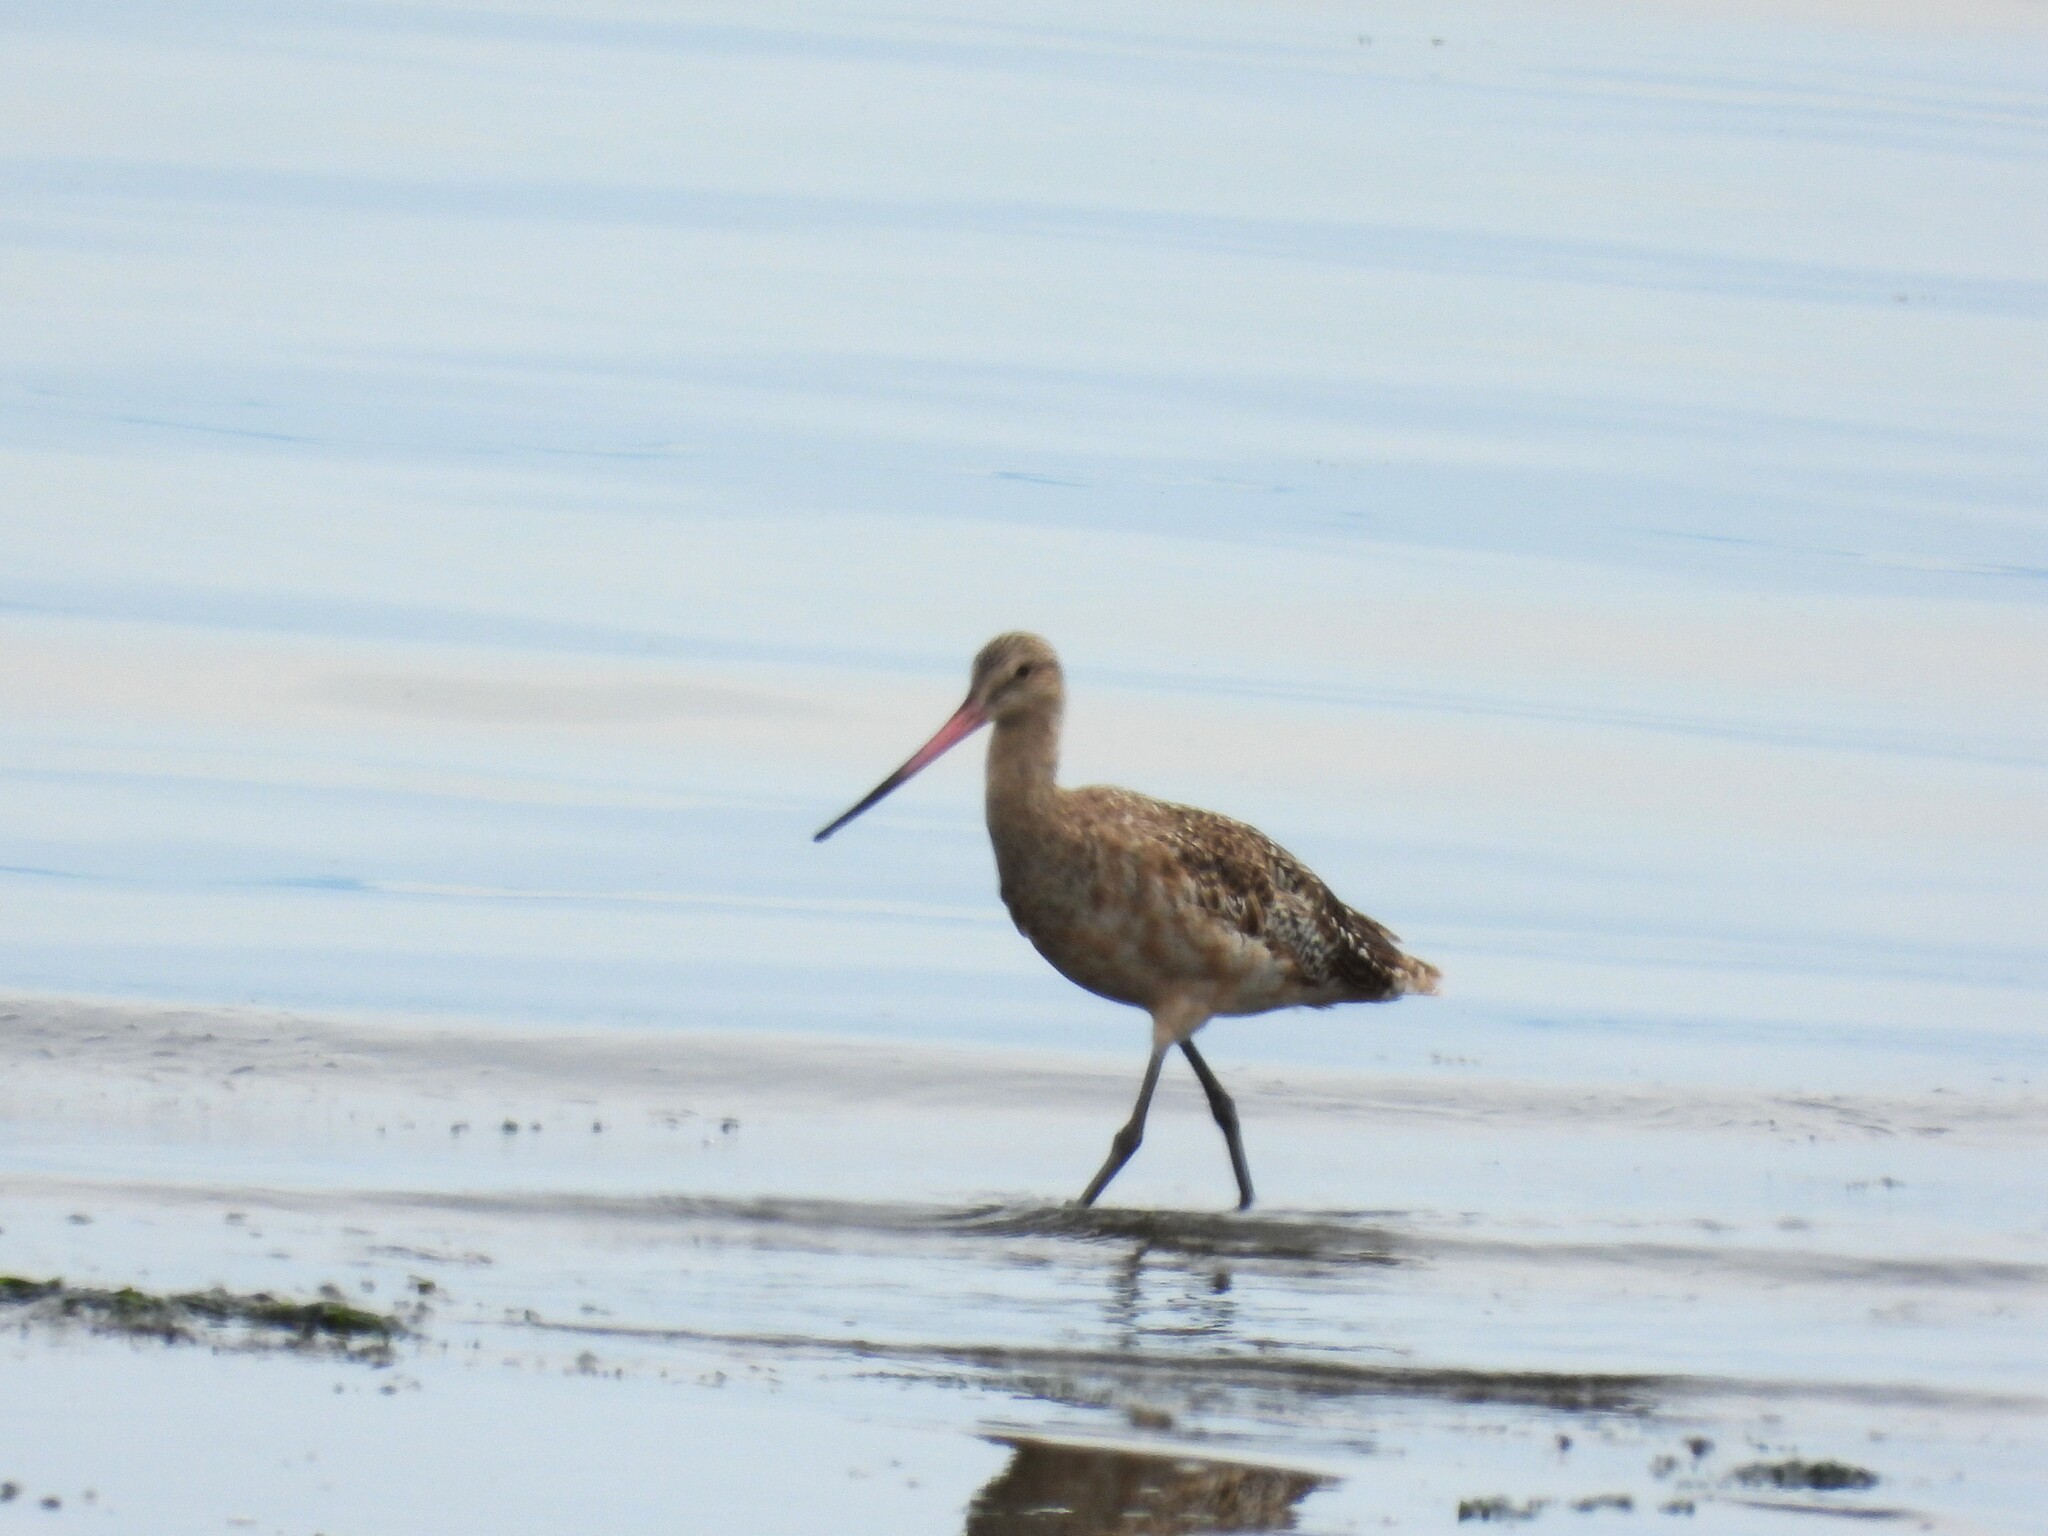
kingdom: Animalia
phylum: Chordata
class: Aves
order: Charadriiformes
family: Scolopacidae
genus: Limosa
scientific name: Limosa fedoa
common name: Marbled godwit
